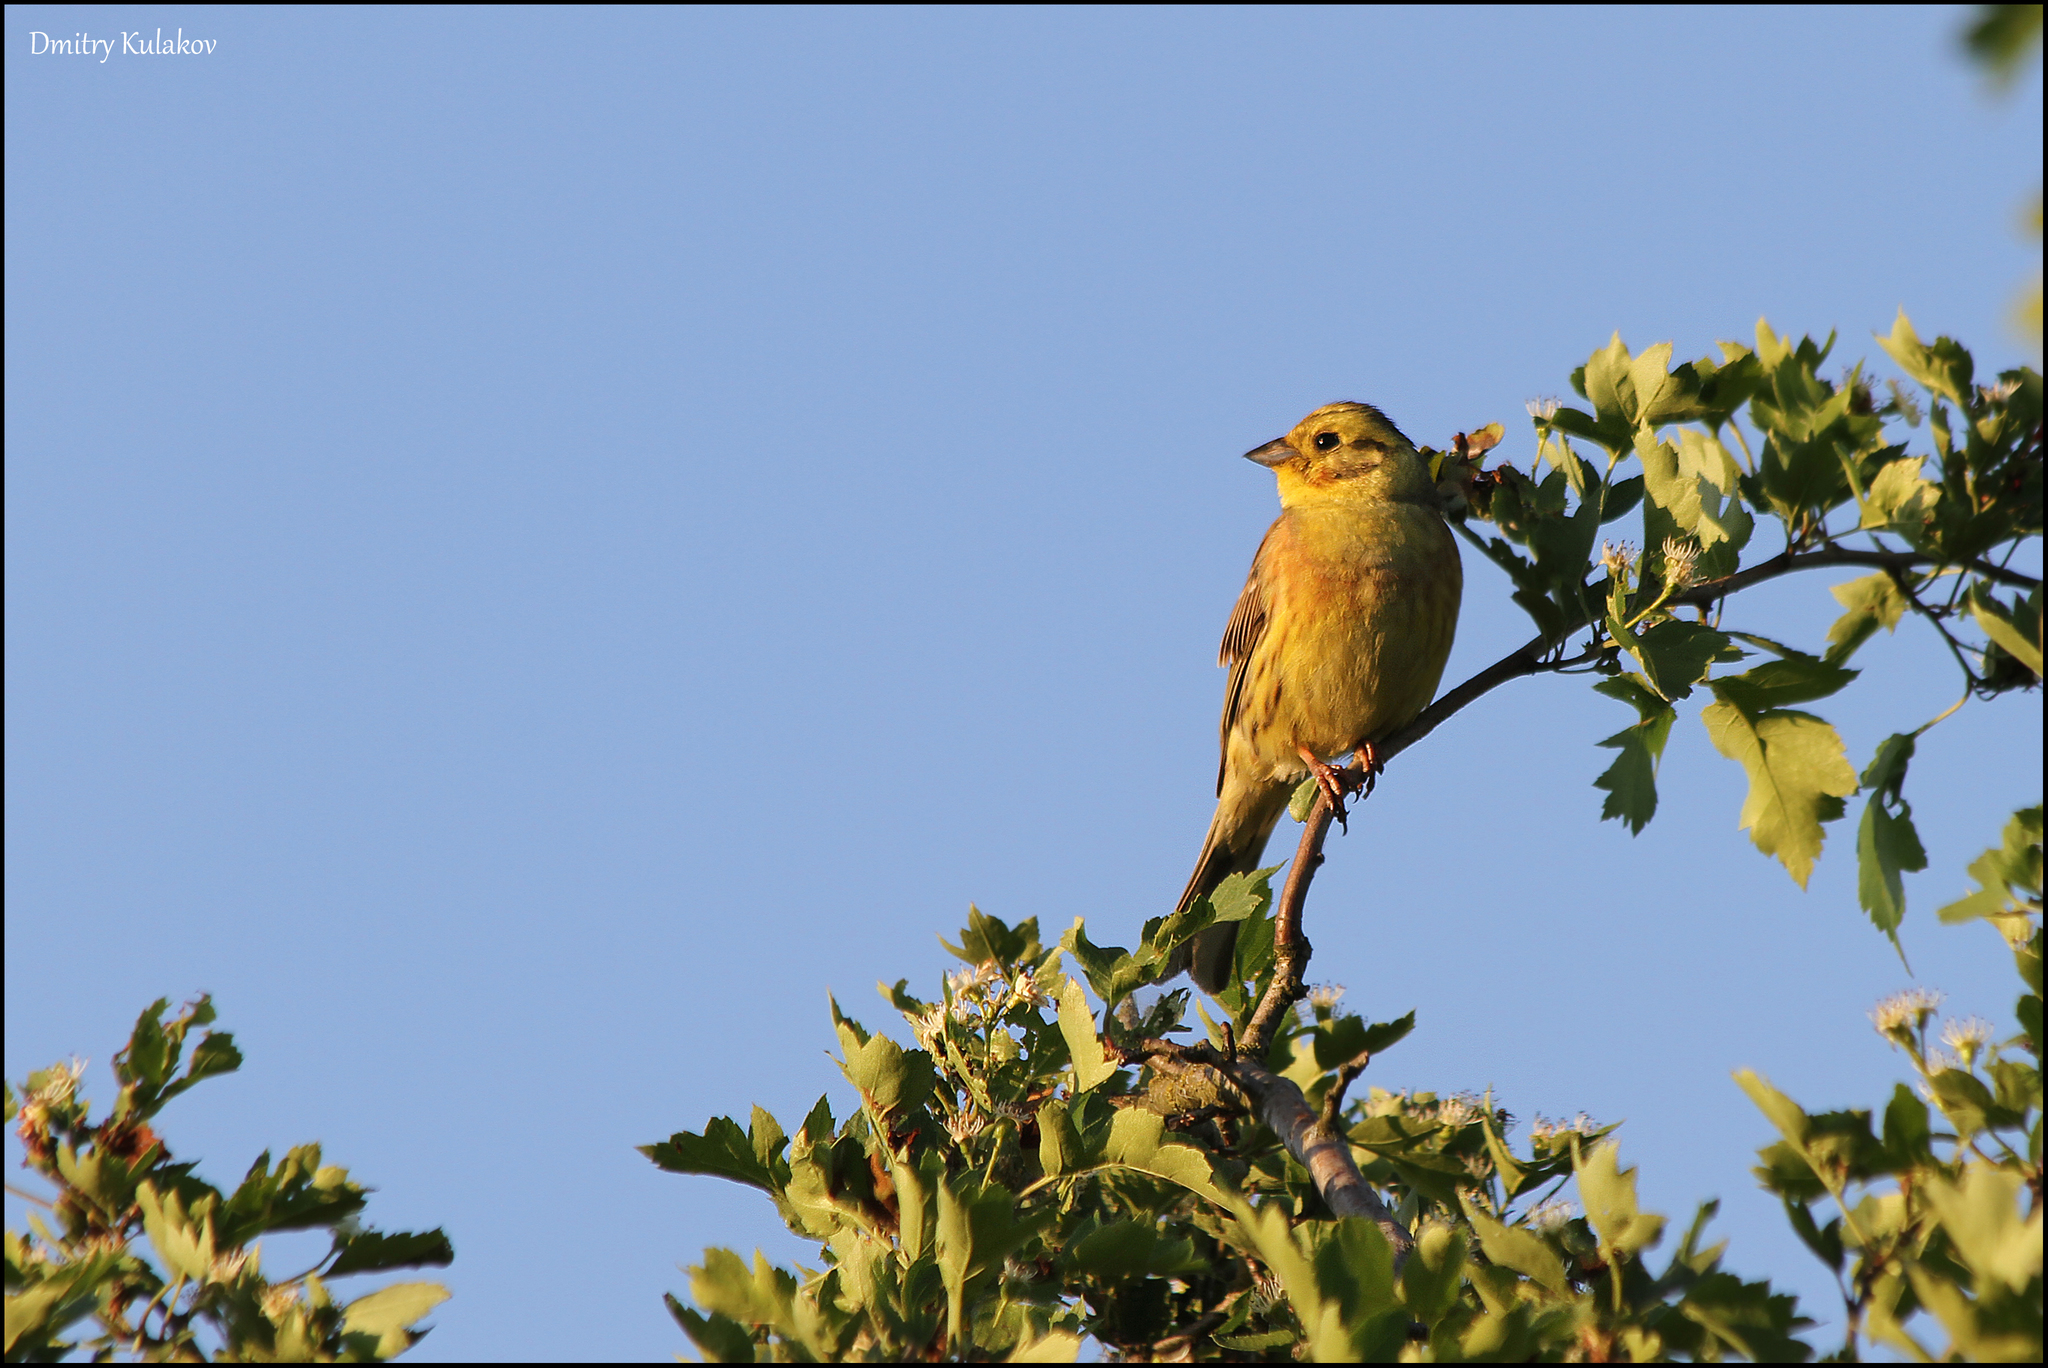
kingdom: Animalia
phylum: Chordata
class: Aves
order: Passeriformes
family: Emberizidae
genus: Emberiza
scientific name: Emberiza citrinella
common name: Yellowhammer
